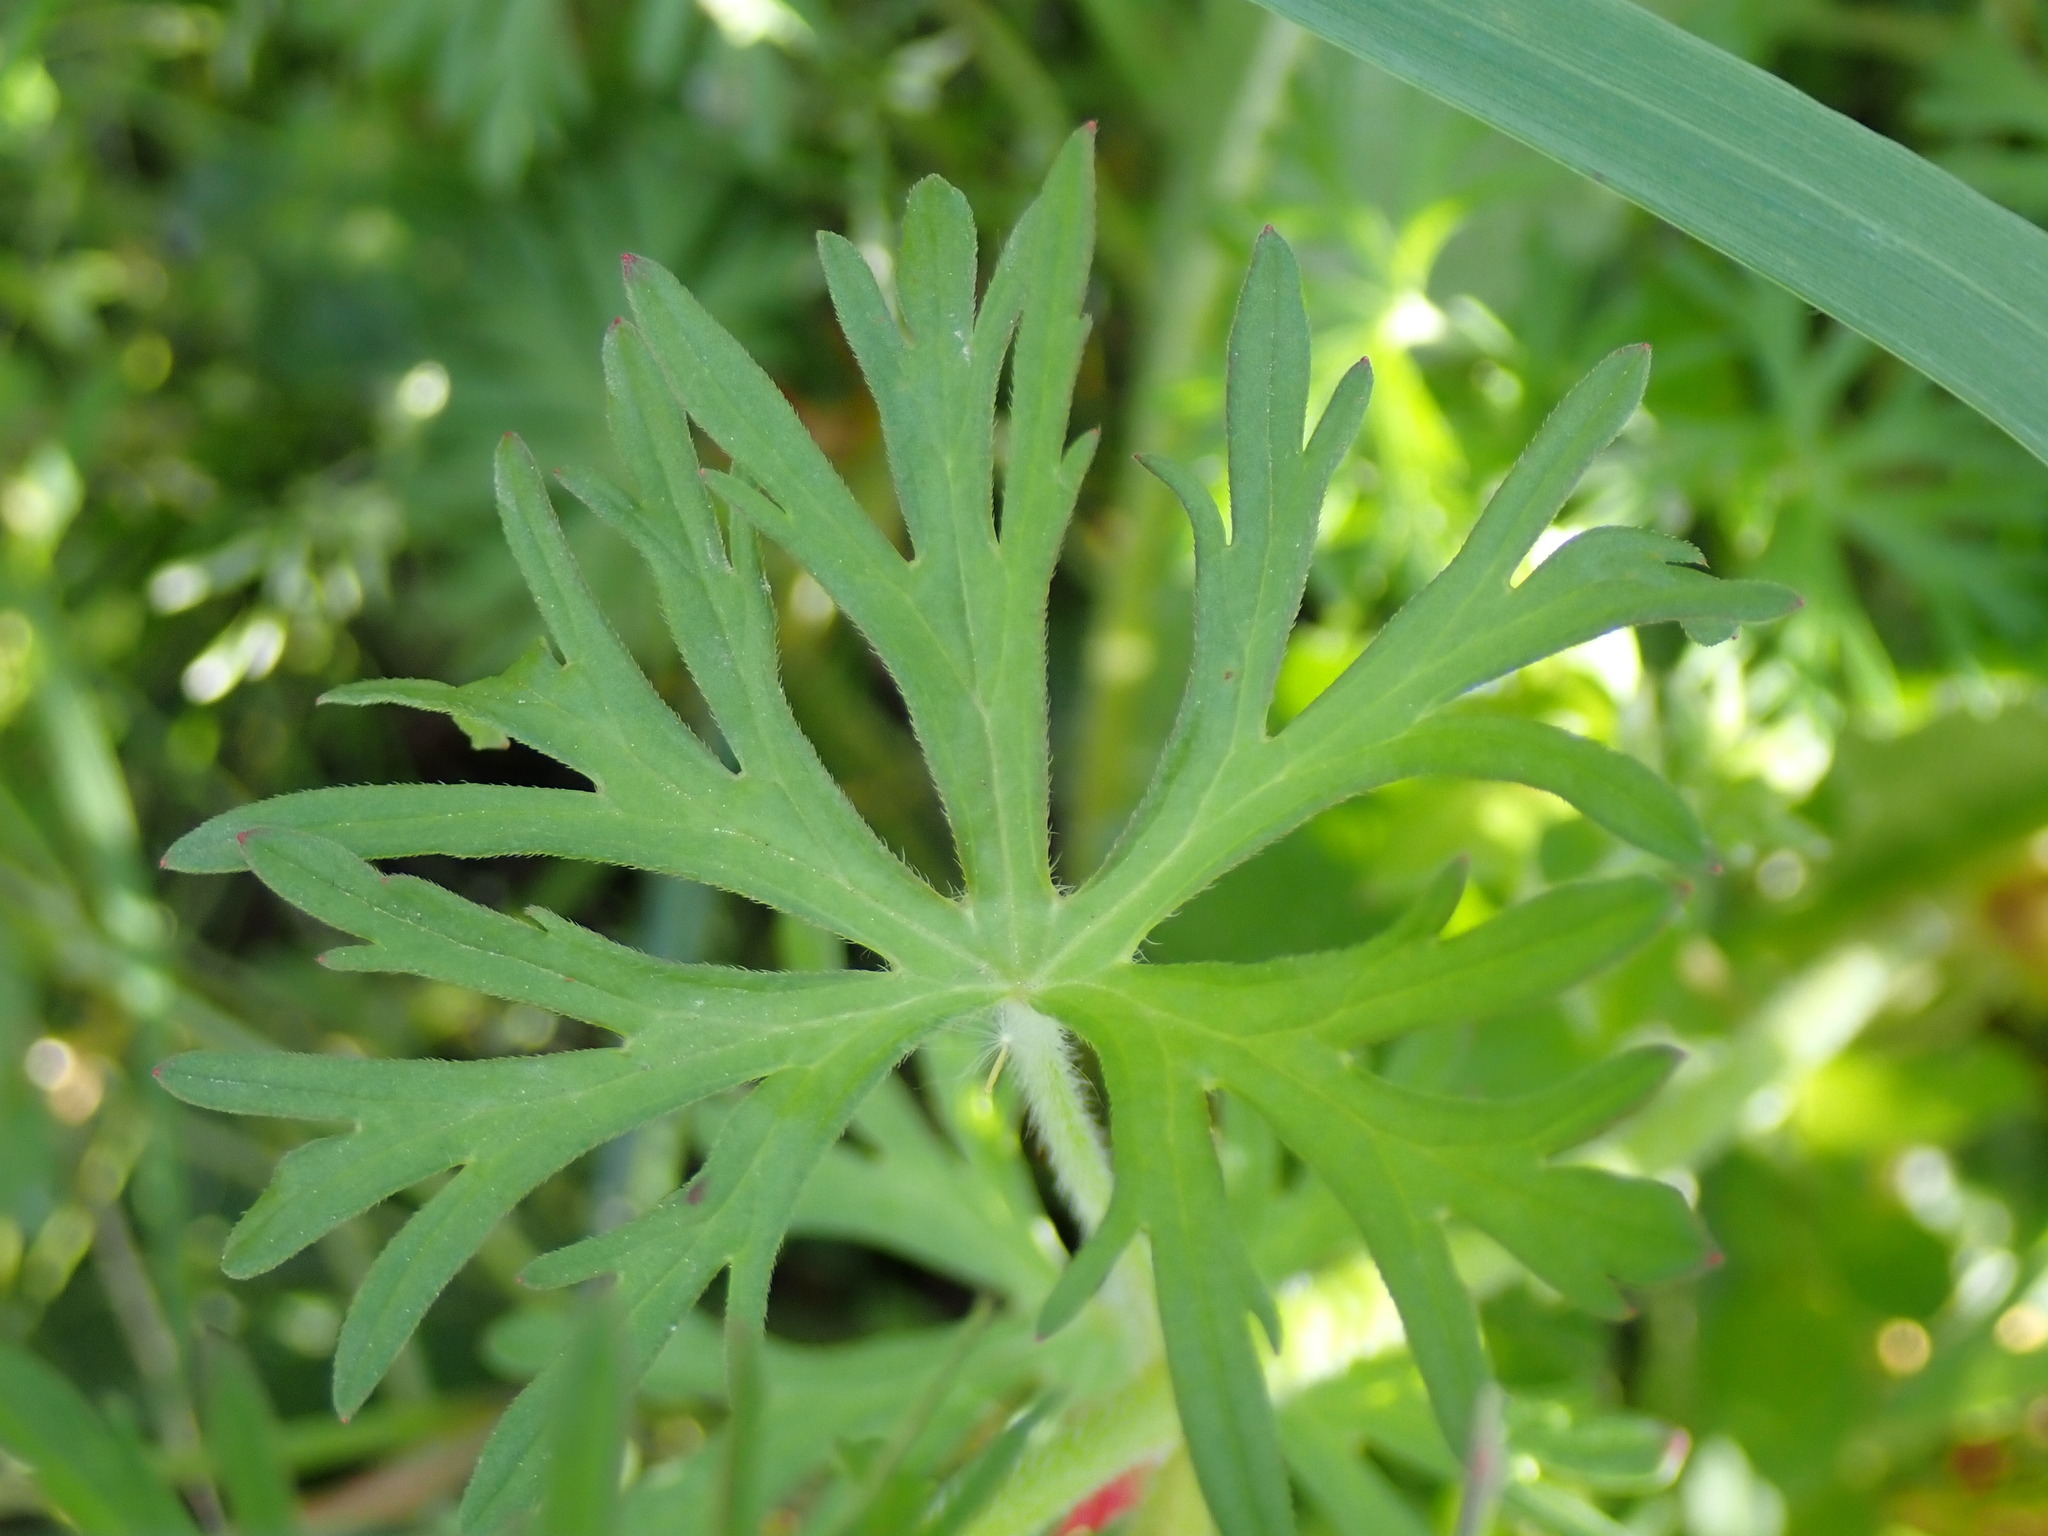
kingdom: Plantae
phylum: Tracheophyta
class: Magnoliopsida
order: Geraniales
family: Geraniaceae
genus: Geranium
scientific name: Geranium dissectum
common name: Cut-leaved crane's-bill
